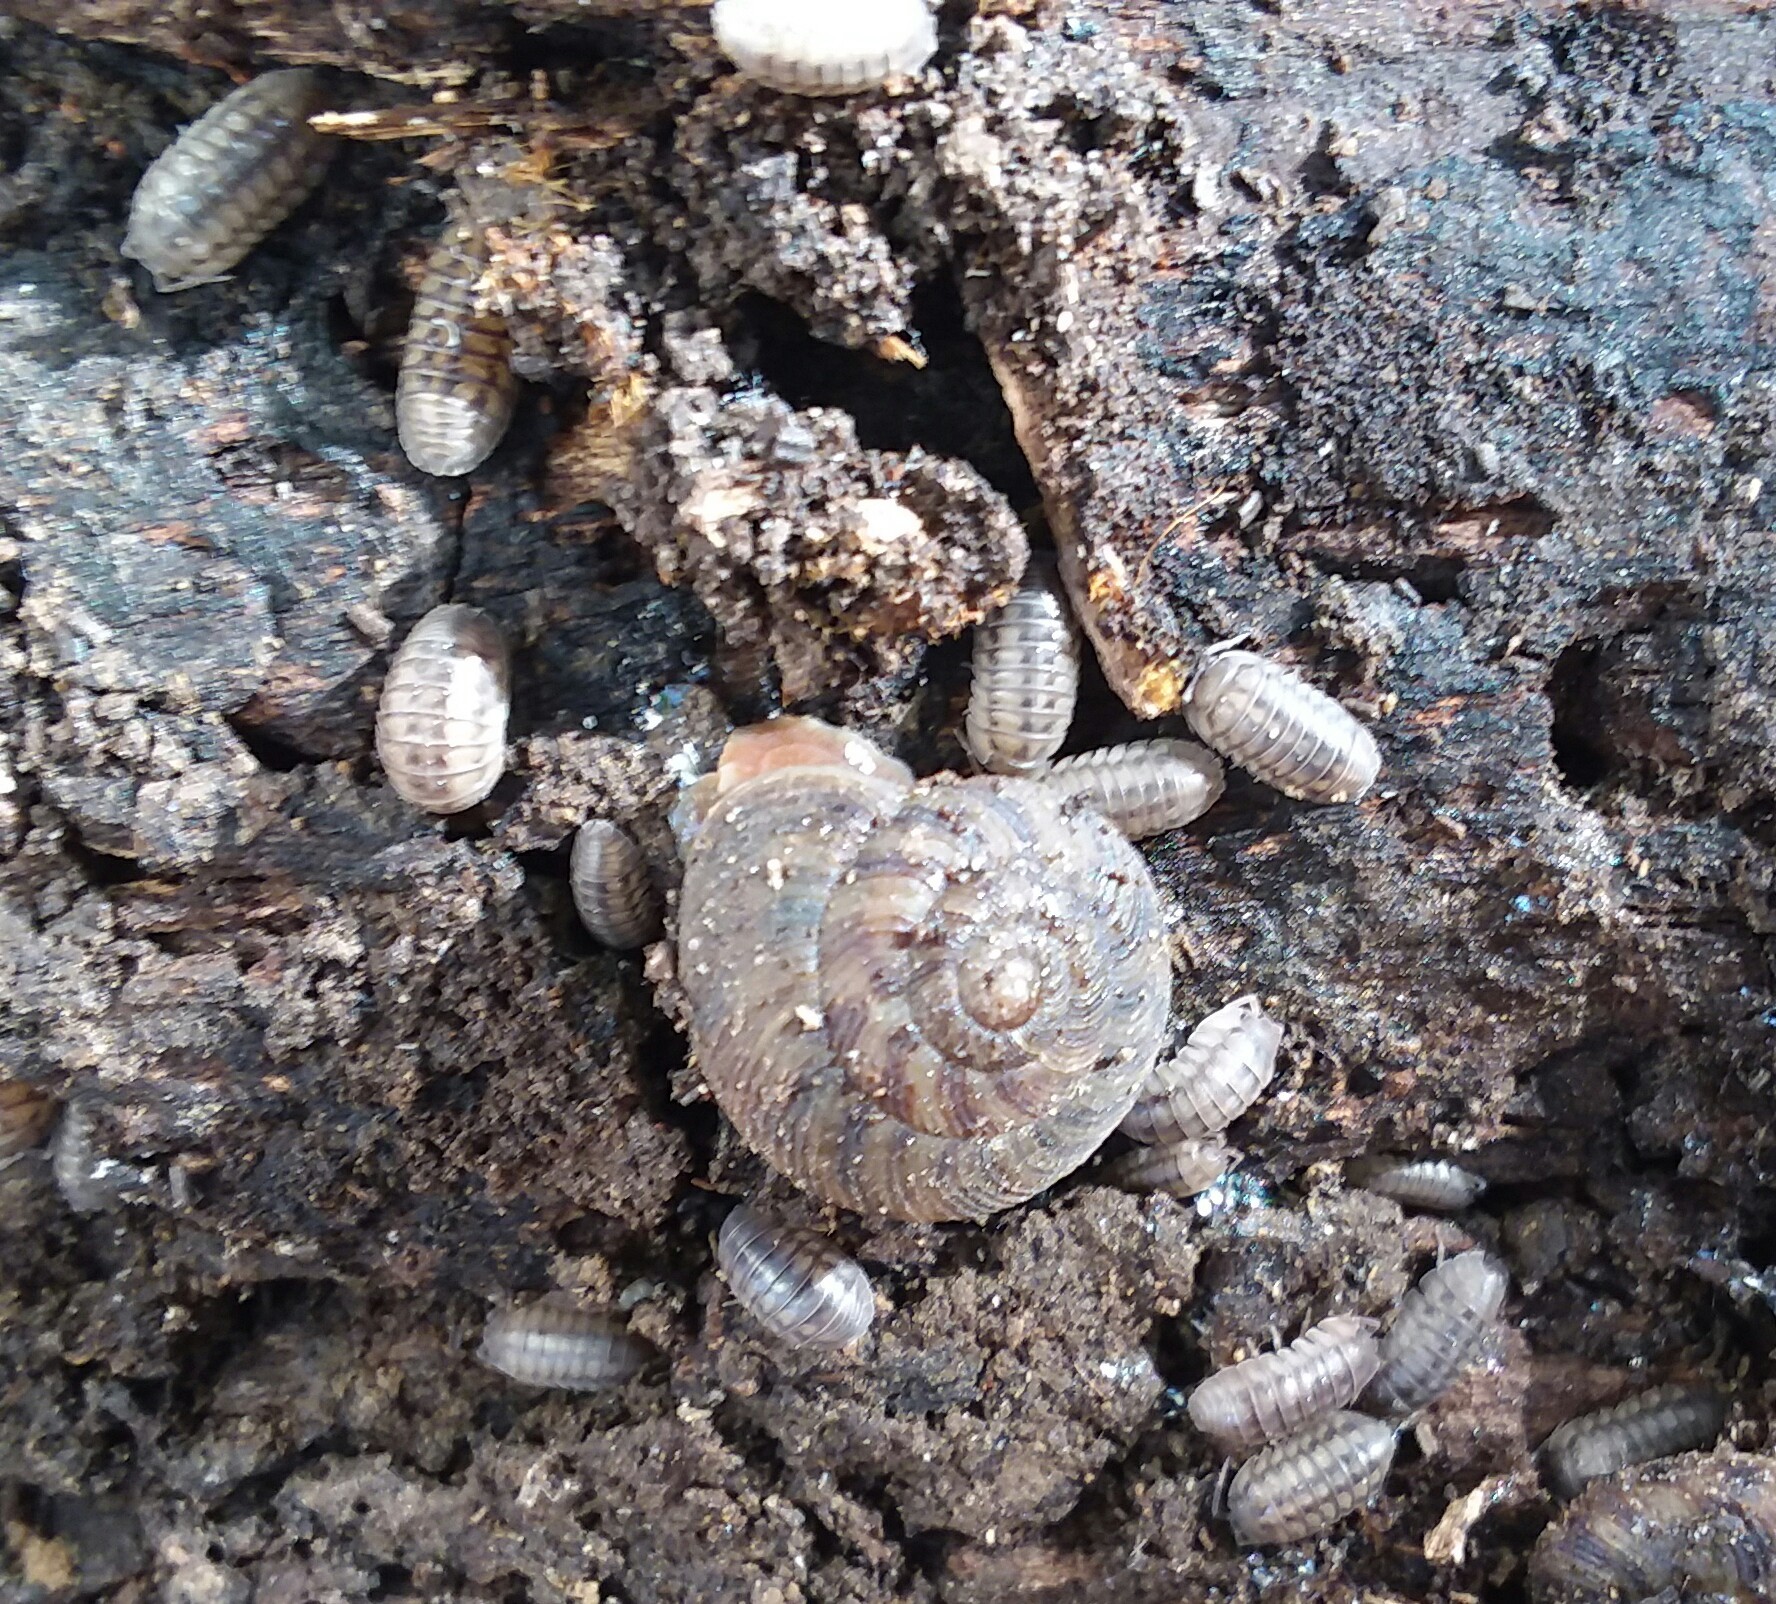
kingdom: Animalia
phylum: Arthropoda
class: Malacostraca
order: Isopoda
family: Armadillidiidae
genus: Armadillidium
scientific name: Armadillidium nasatum
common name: Isopod
